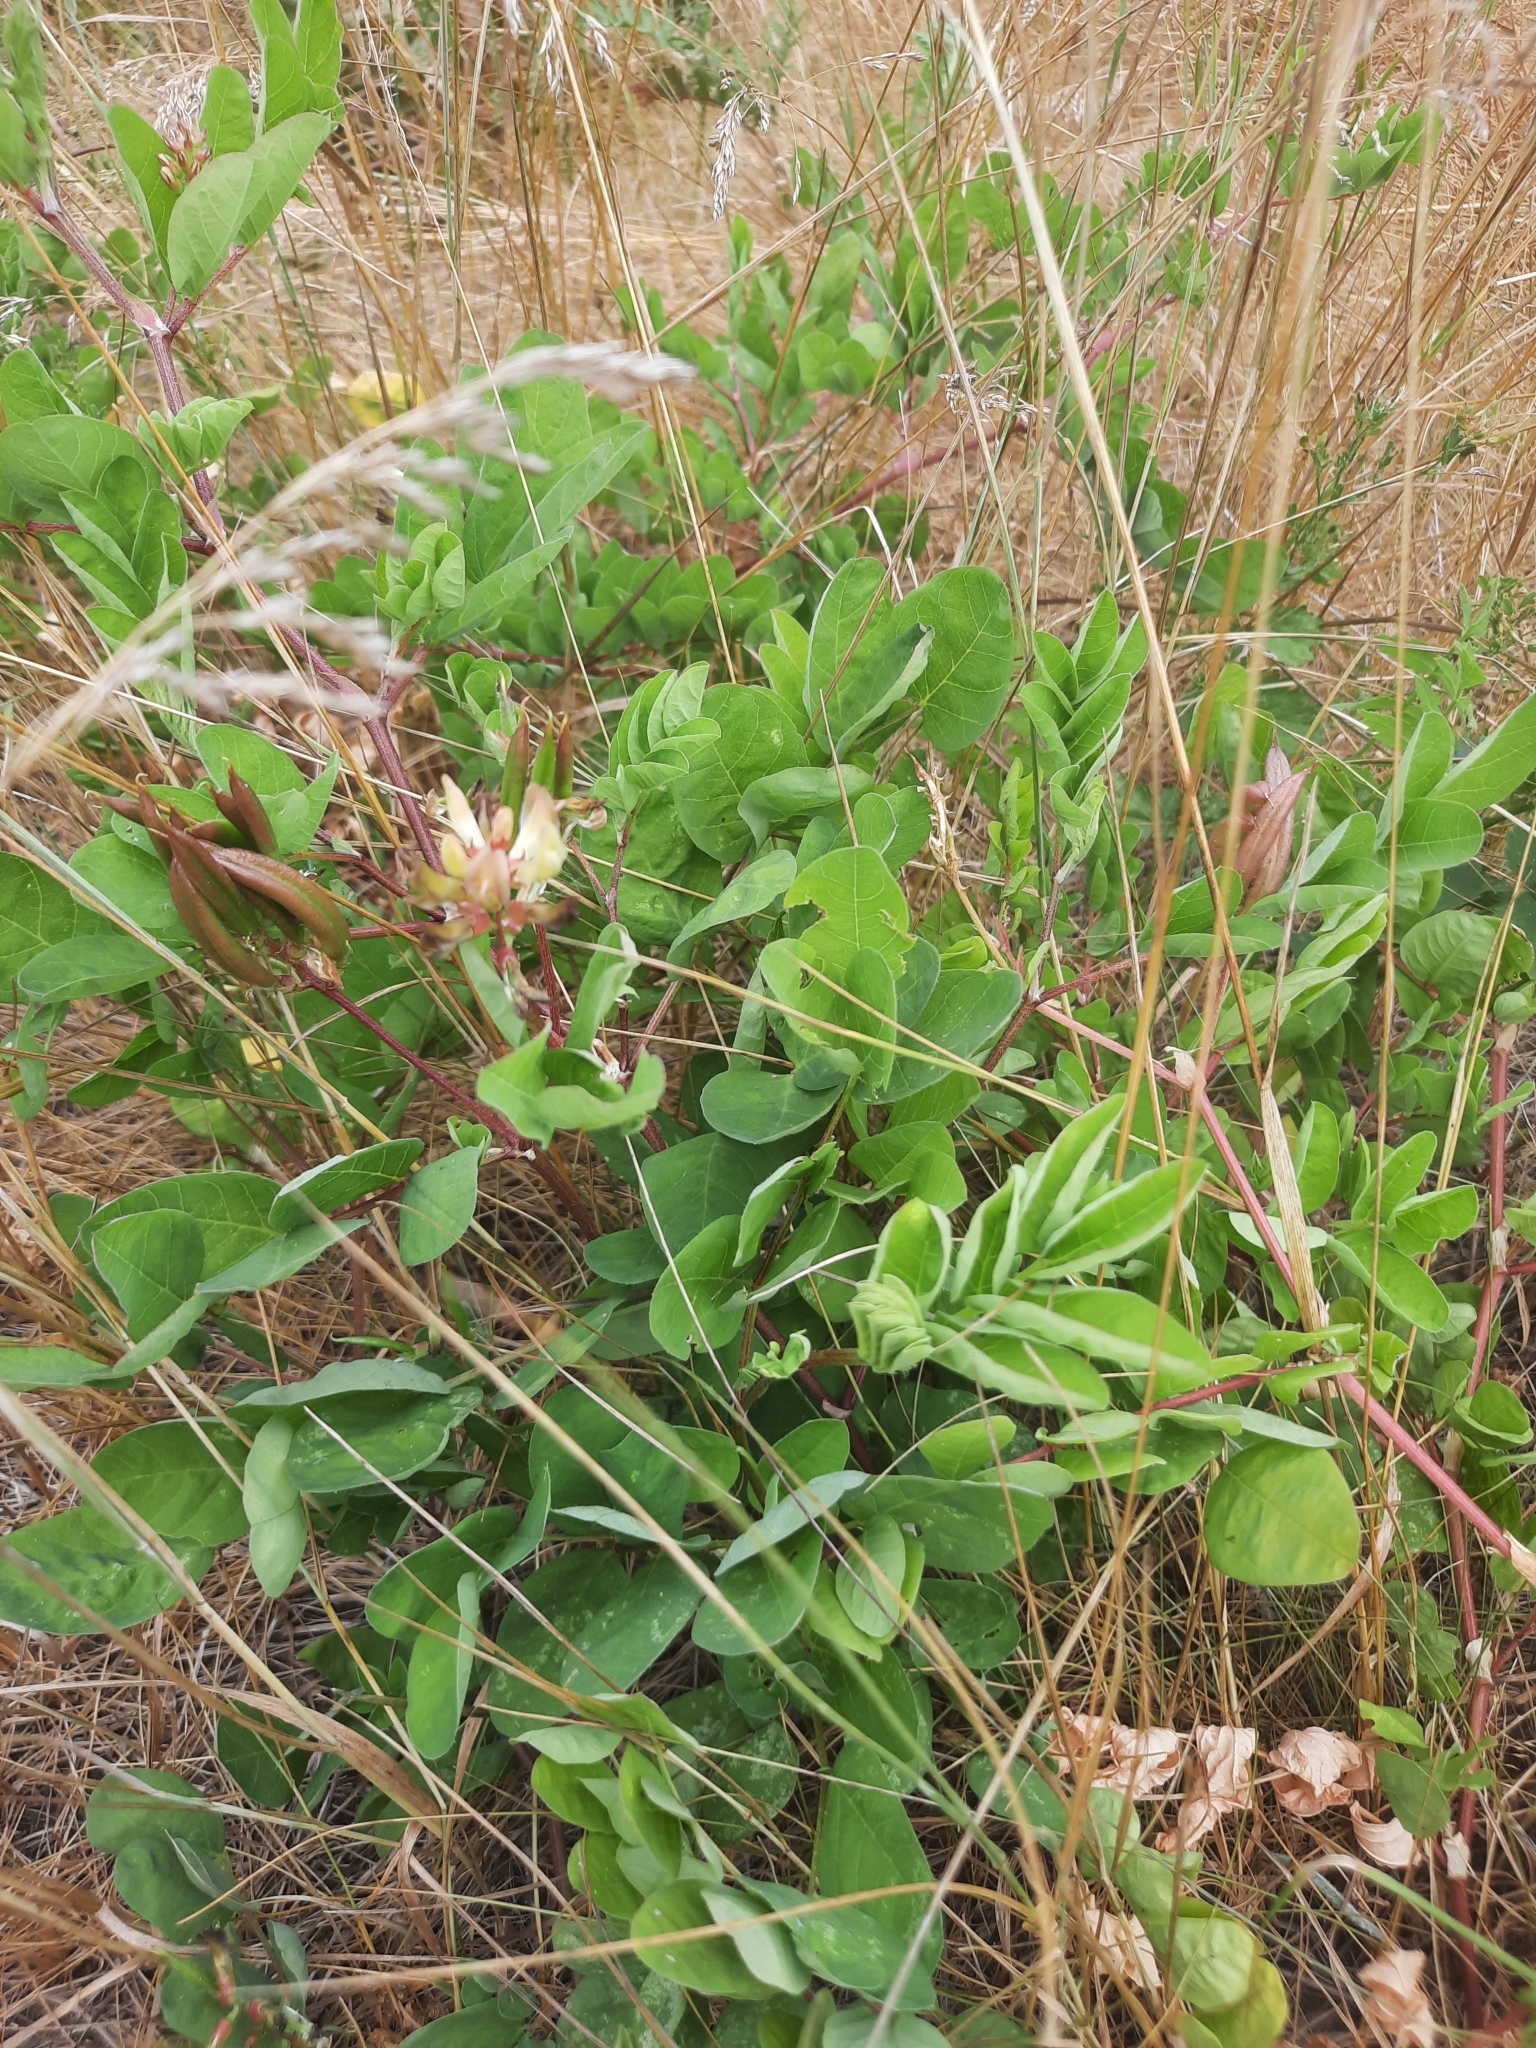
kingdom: Plantae
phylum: Tracheophyta
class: Magnoliopsida
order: Fabales
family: Fabaceae
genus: Astragalus
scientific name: Astragalus glycyphyllos
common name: Wild liquorice
